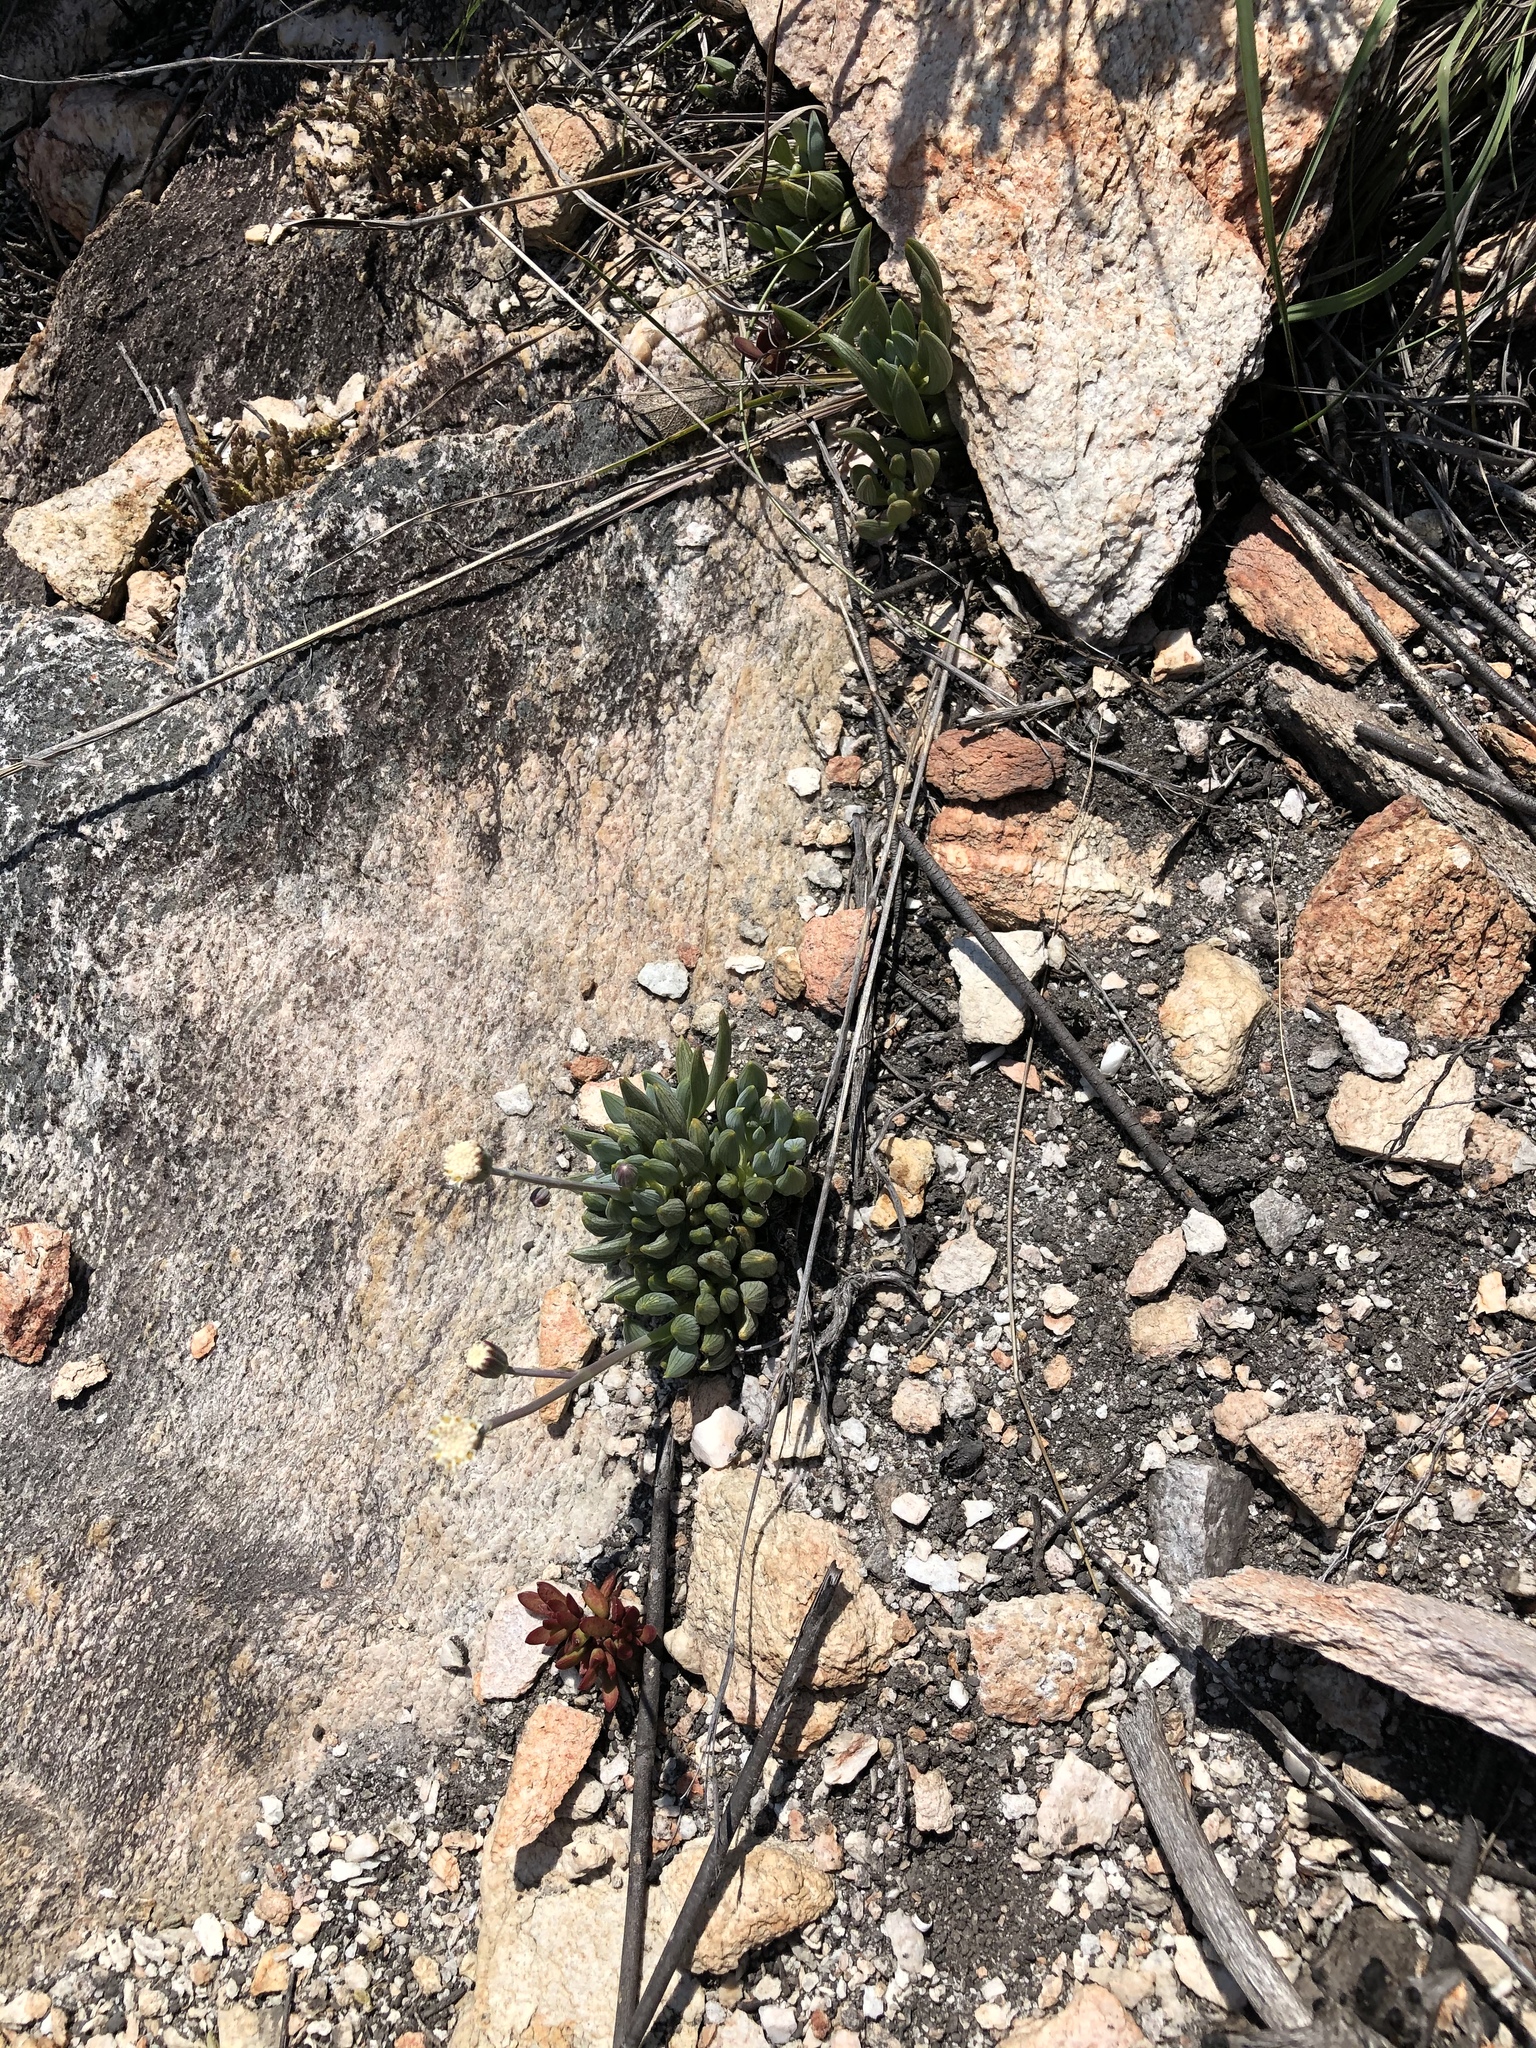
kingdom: Plantae
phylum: Tracheophyta
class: Magnoliopsida
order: Asterales
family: Asteraceae
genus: Curio
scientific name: Curio talinoides
